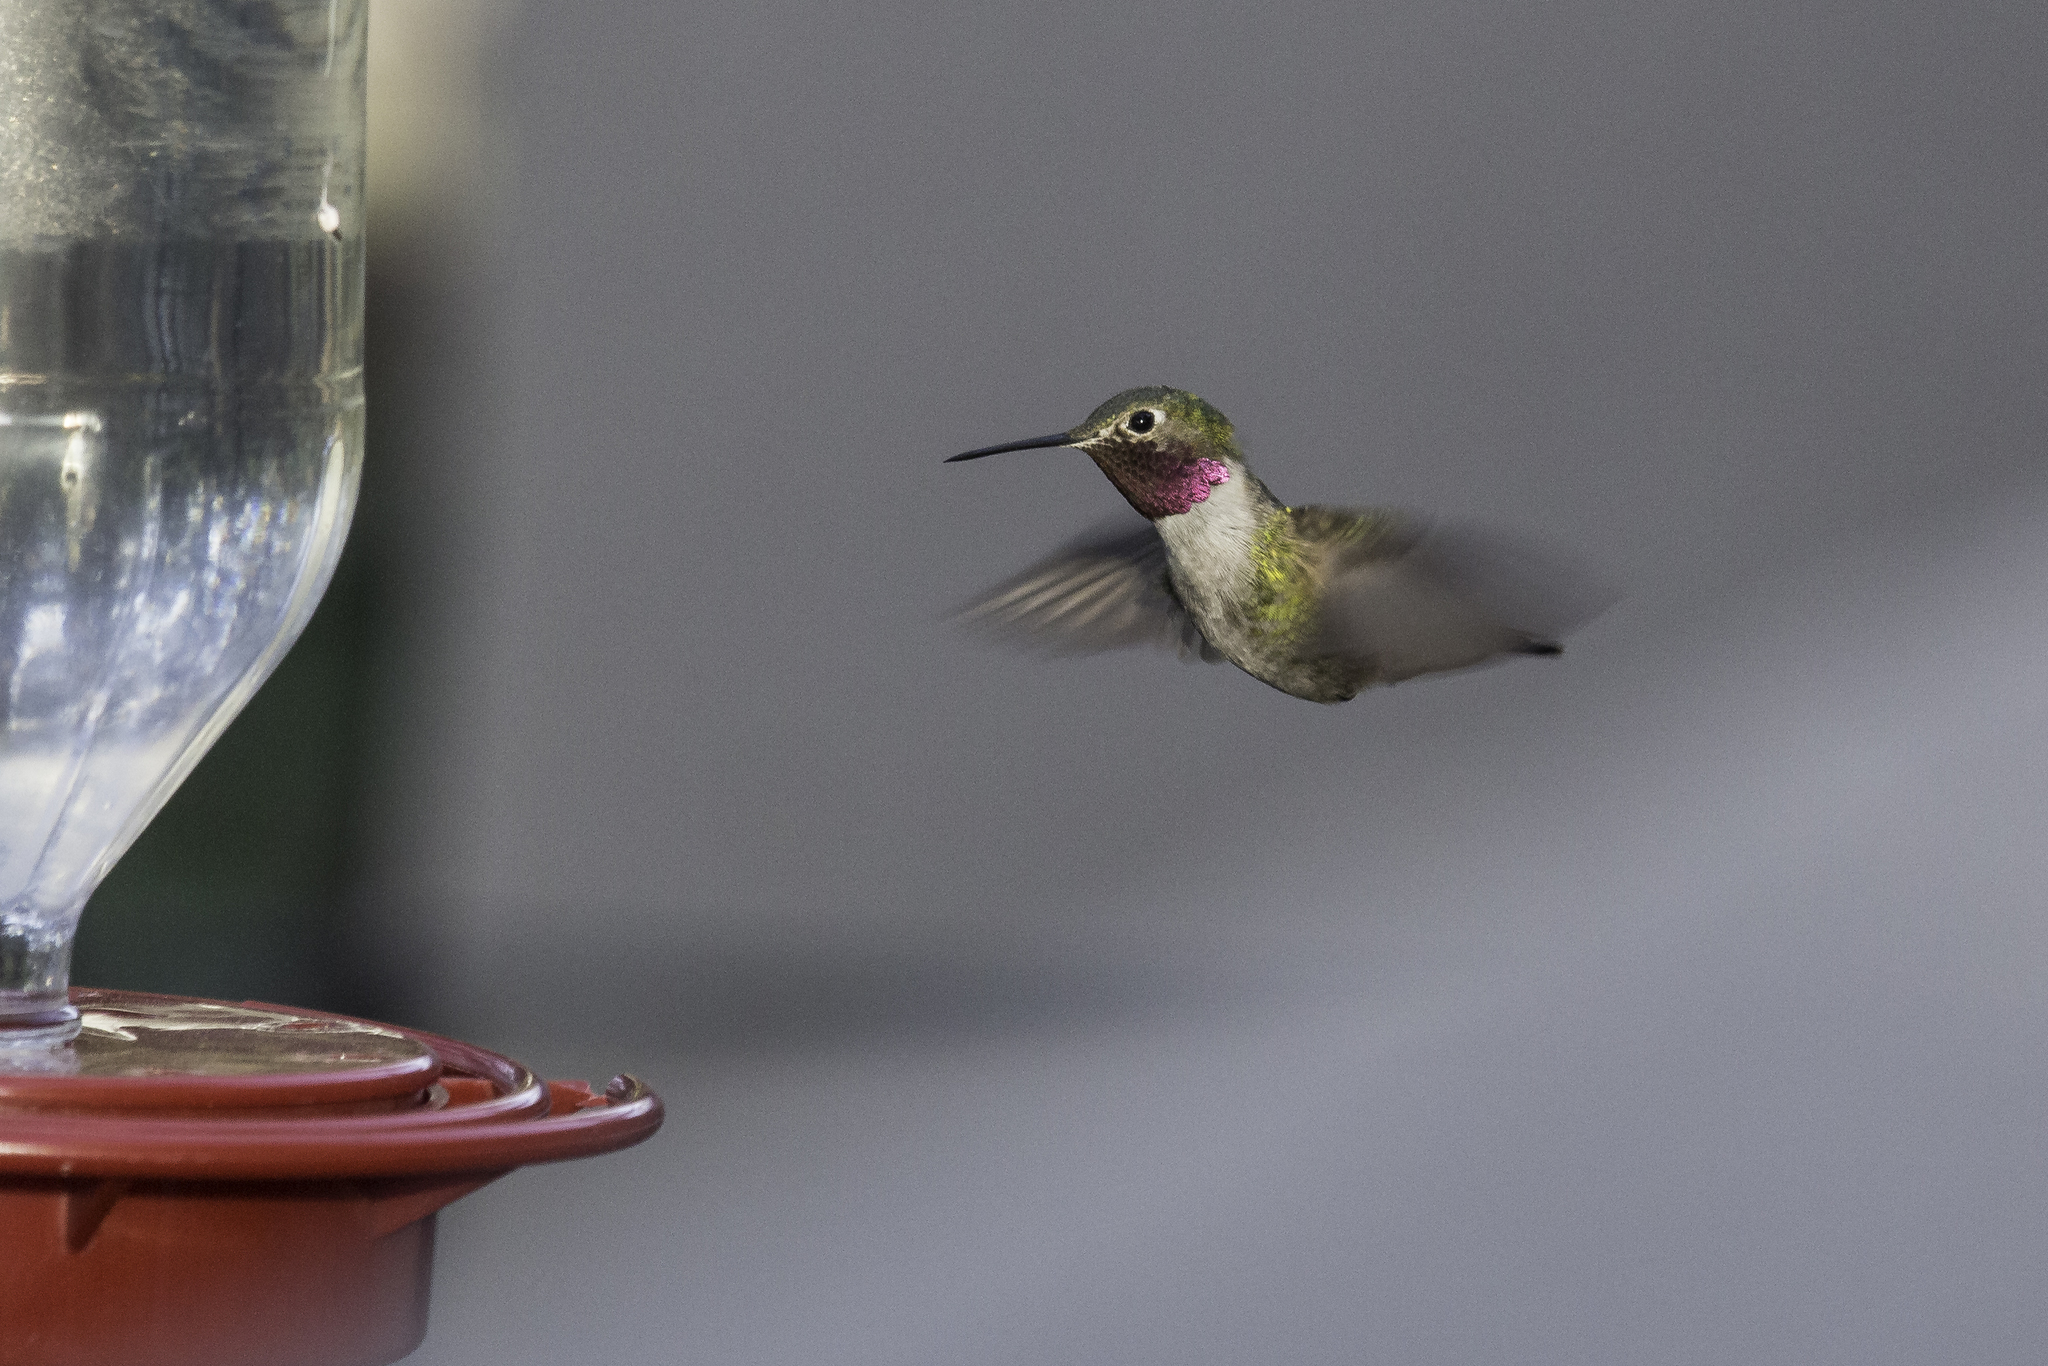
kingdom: Animalia
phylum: Chordata
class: Aves
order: Apodiformes
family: Trochilidae
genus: Selasphorus
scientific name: Selasphorus platycercus
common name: Broad-tailed hummingbird
